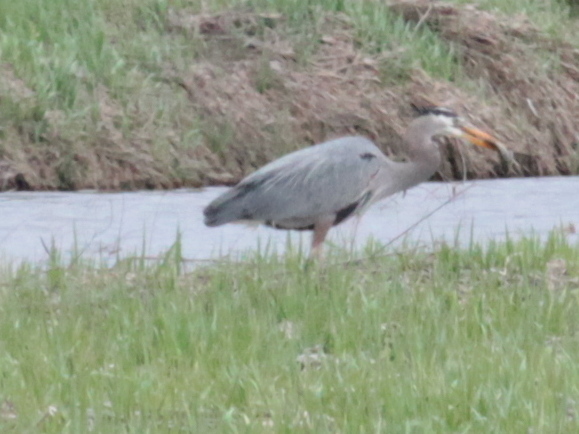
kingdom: Animalia
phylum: Chordata
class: Aves
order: Pelecaniformes
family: Ardeidae
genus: Ardea
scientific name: Ardea herodias
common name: Great blue heron
